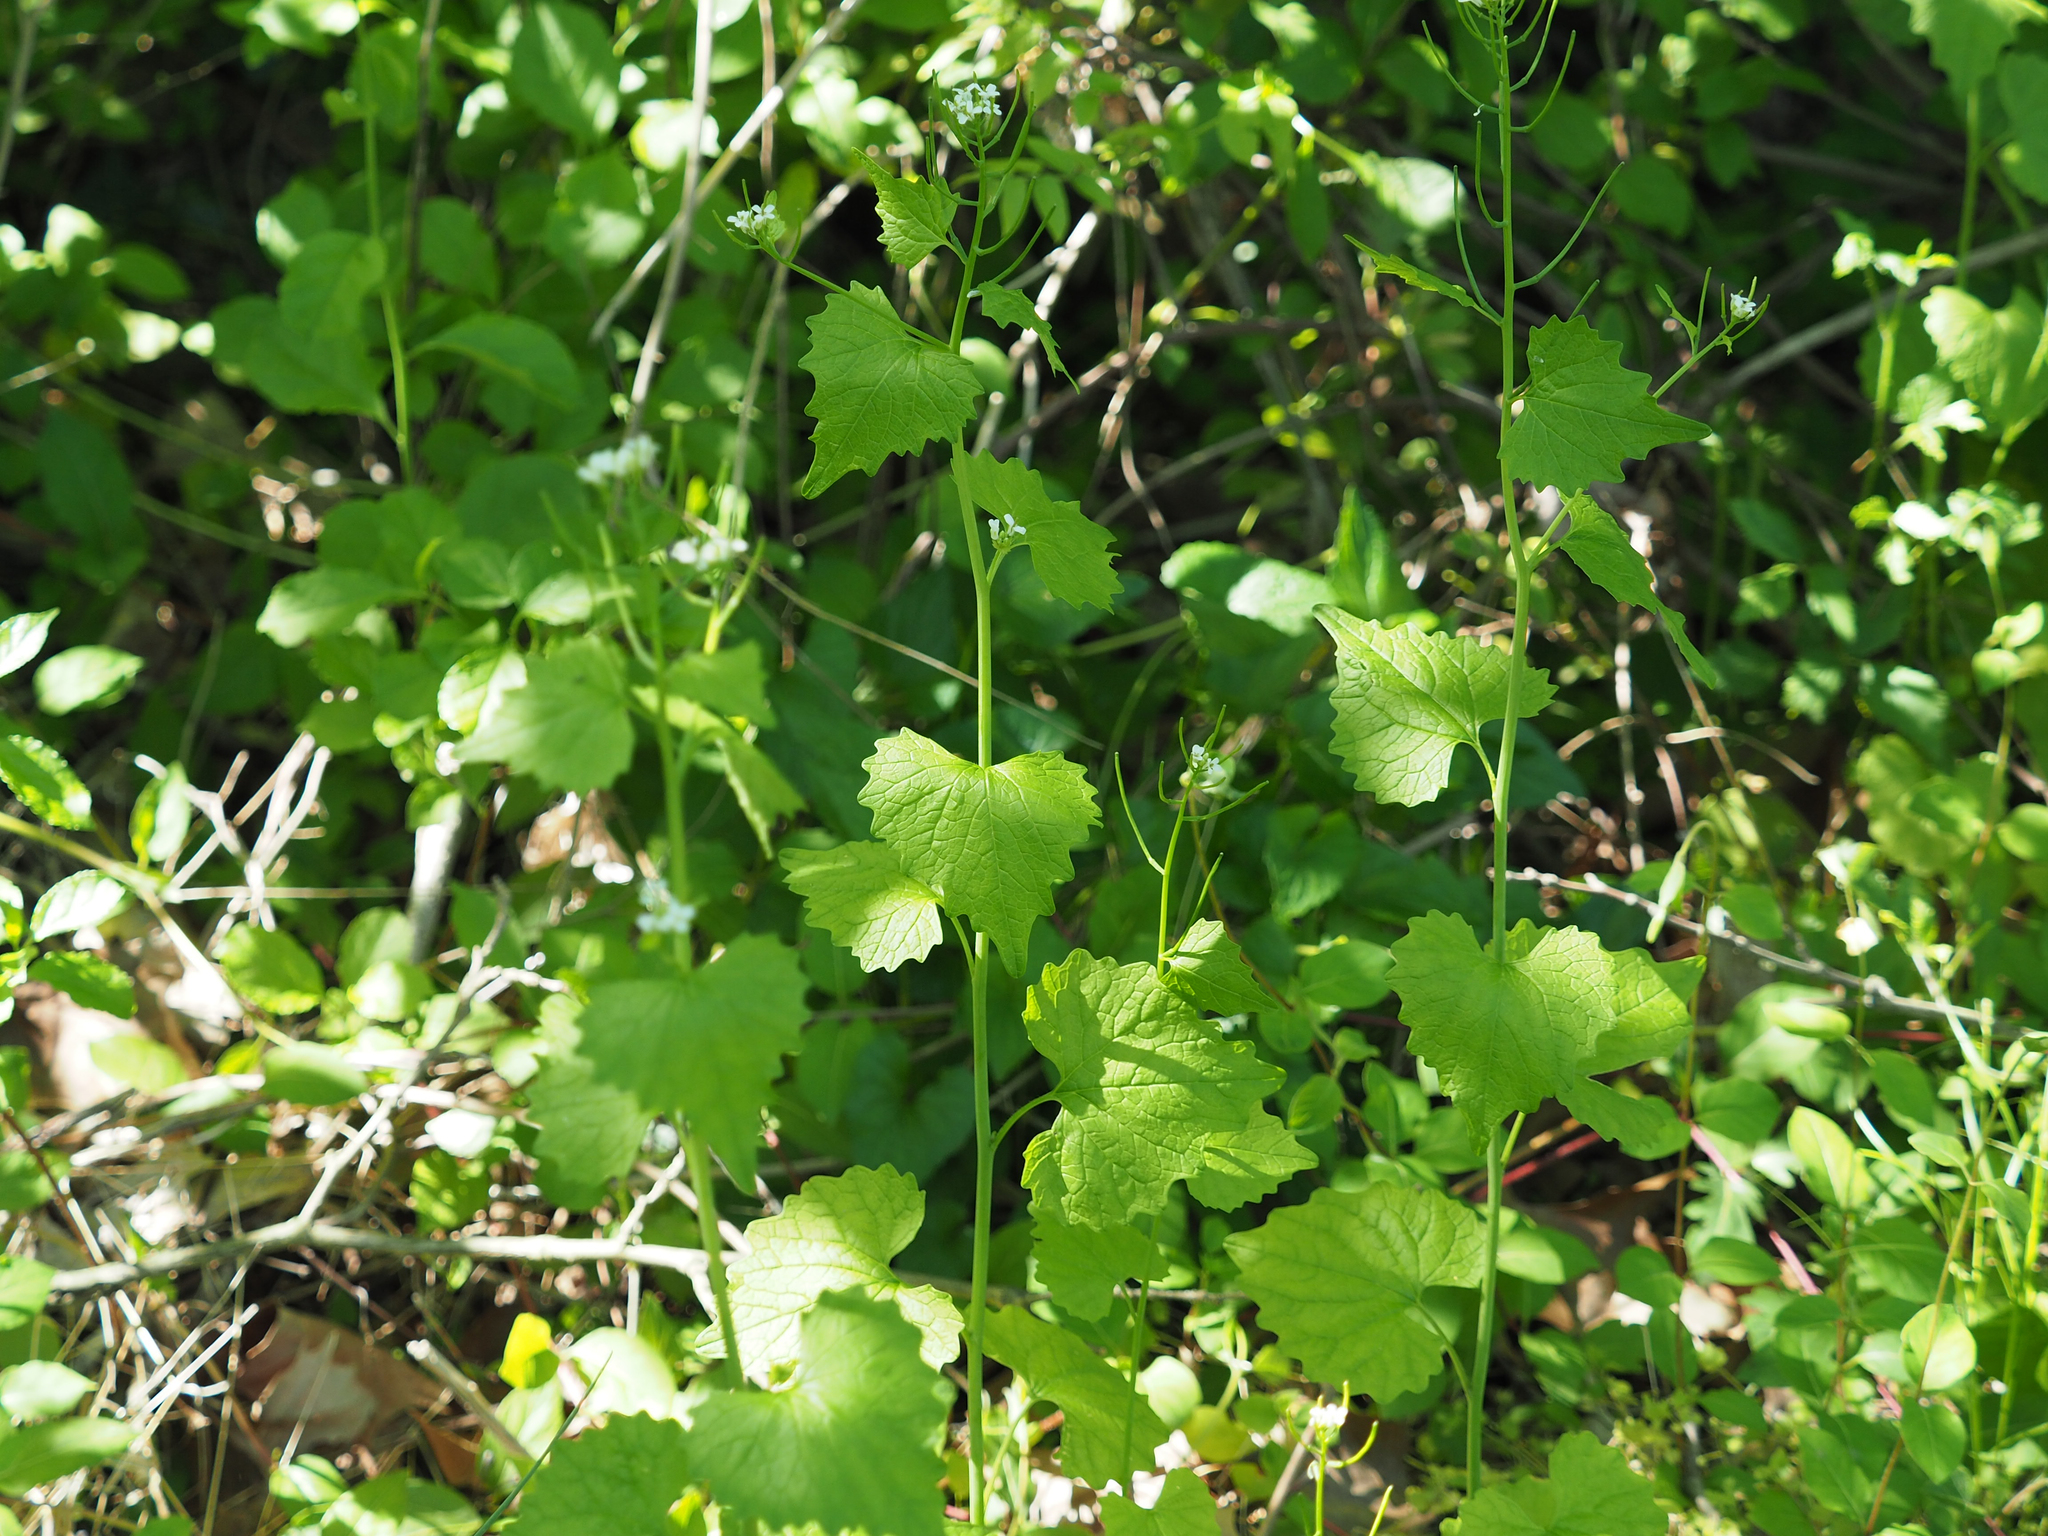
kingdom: Plantae
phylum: Tracheophyta
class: Magnoliopsida
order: Brassicales
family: Brassicaceae
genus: Alliaria
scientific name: Alliaria petiolata
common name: Garlic mustard
